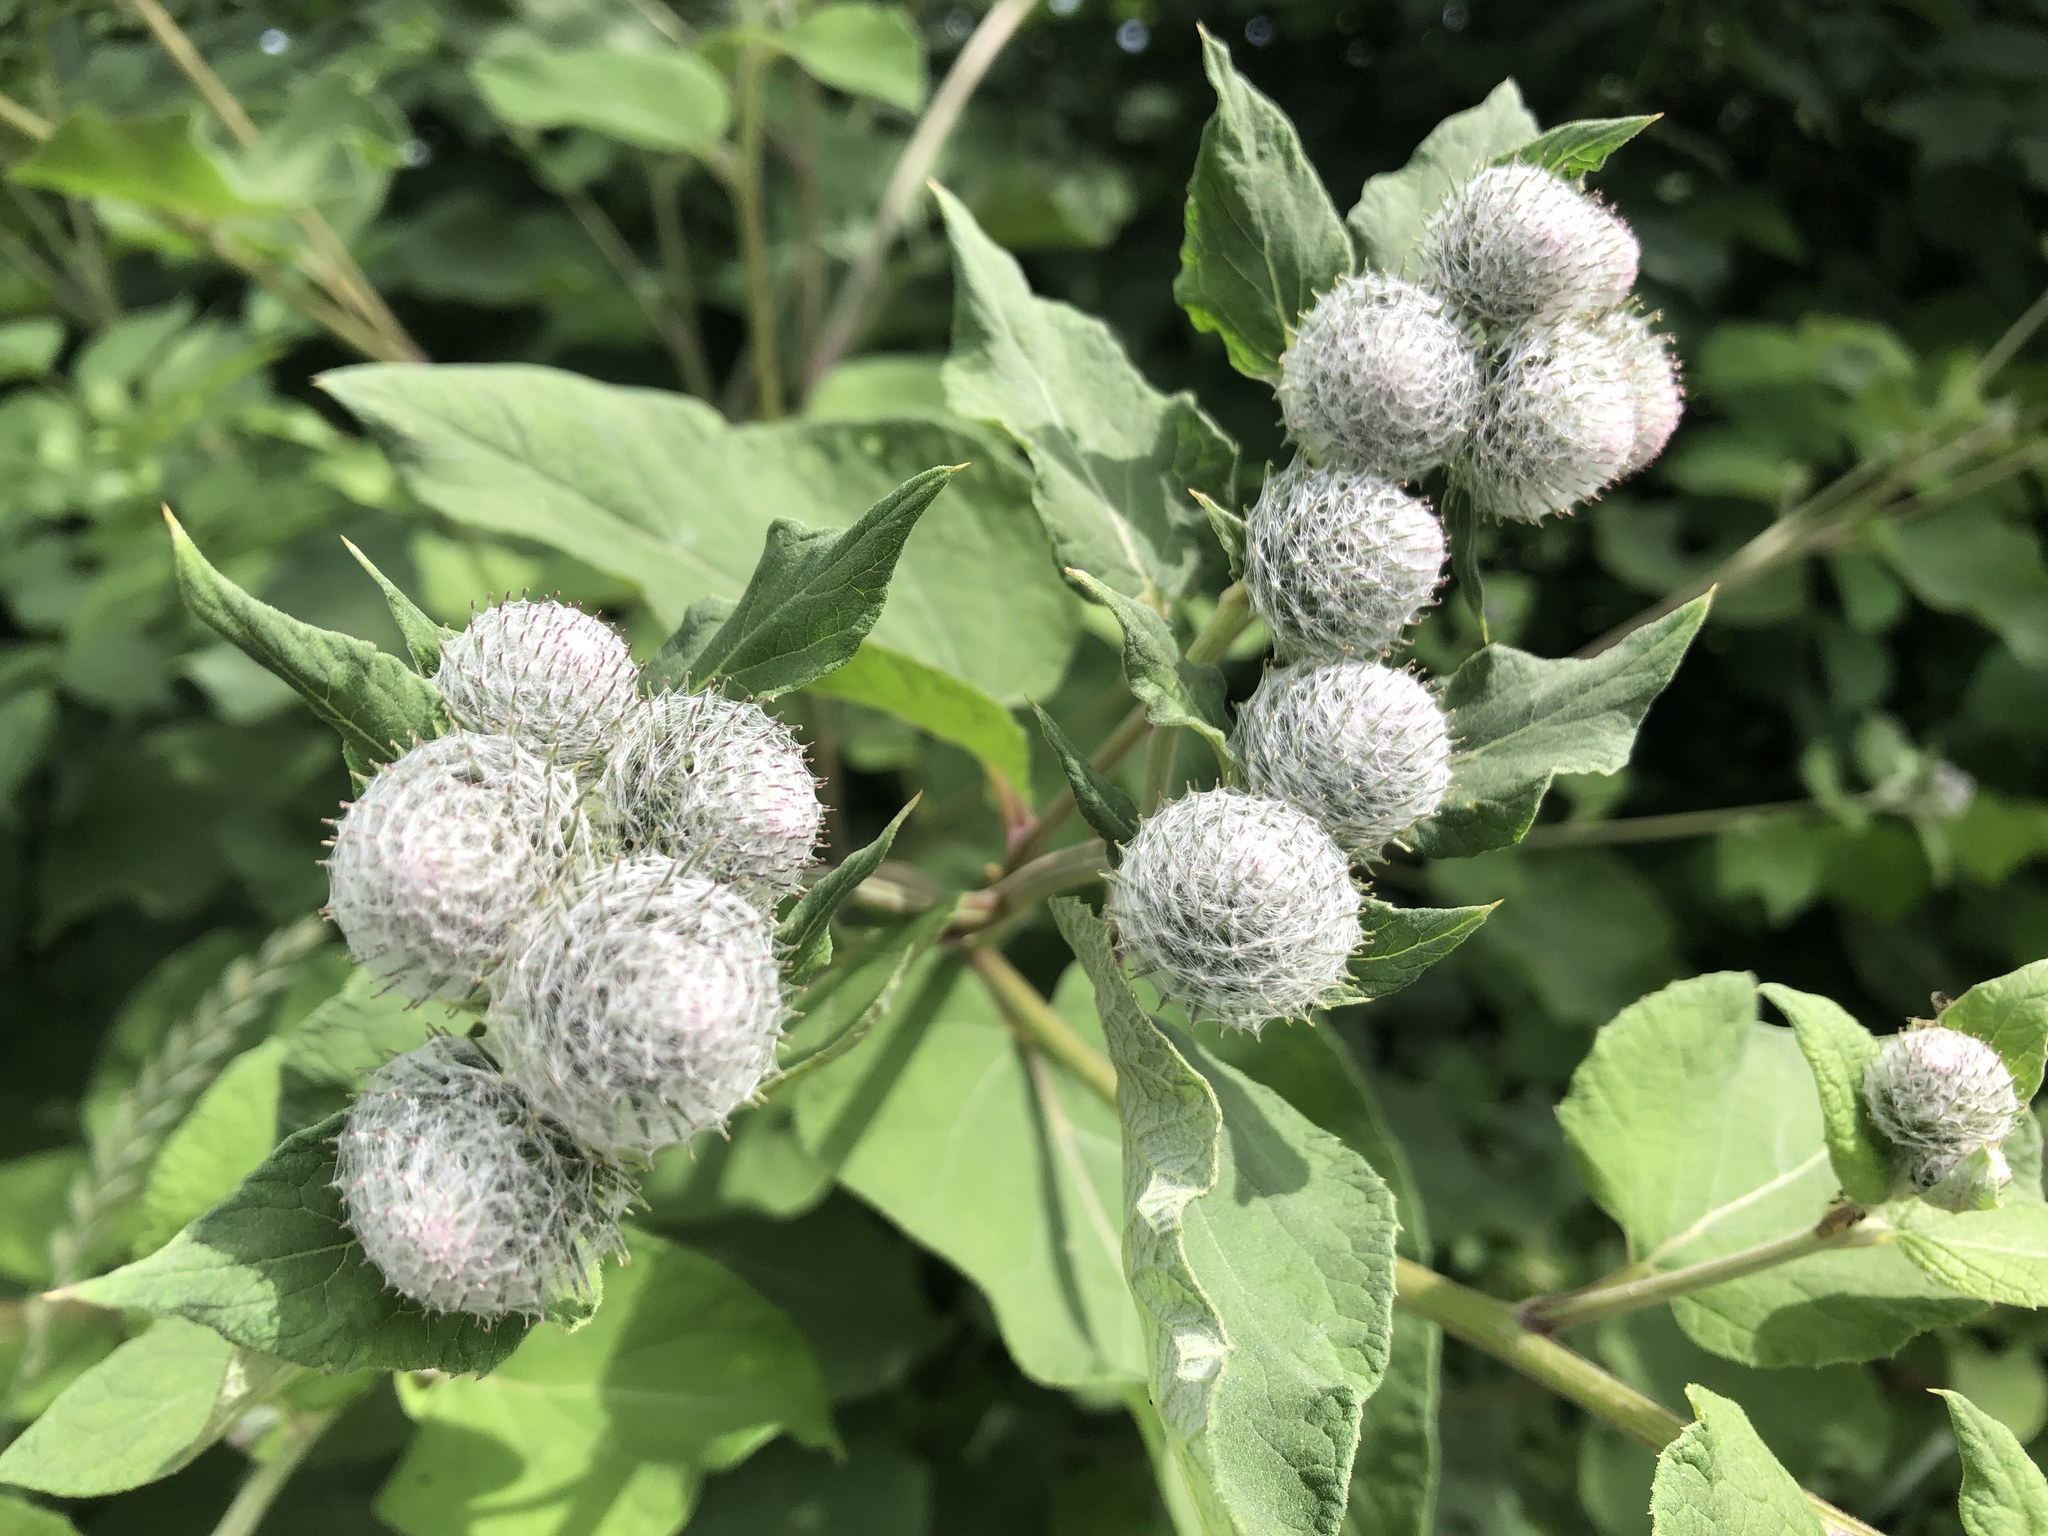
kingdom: Plantae
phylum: Tracheophyta
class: Magnoliopsida
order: Asterales
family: Asteraceae
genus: Arctium
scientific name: Arctium tomentosum
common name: Woolly burdock
